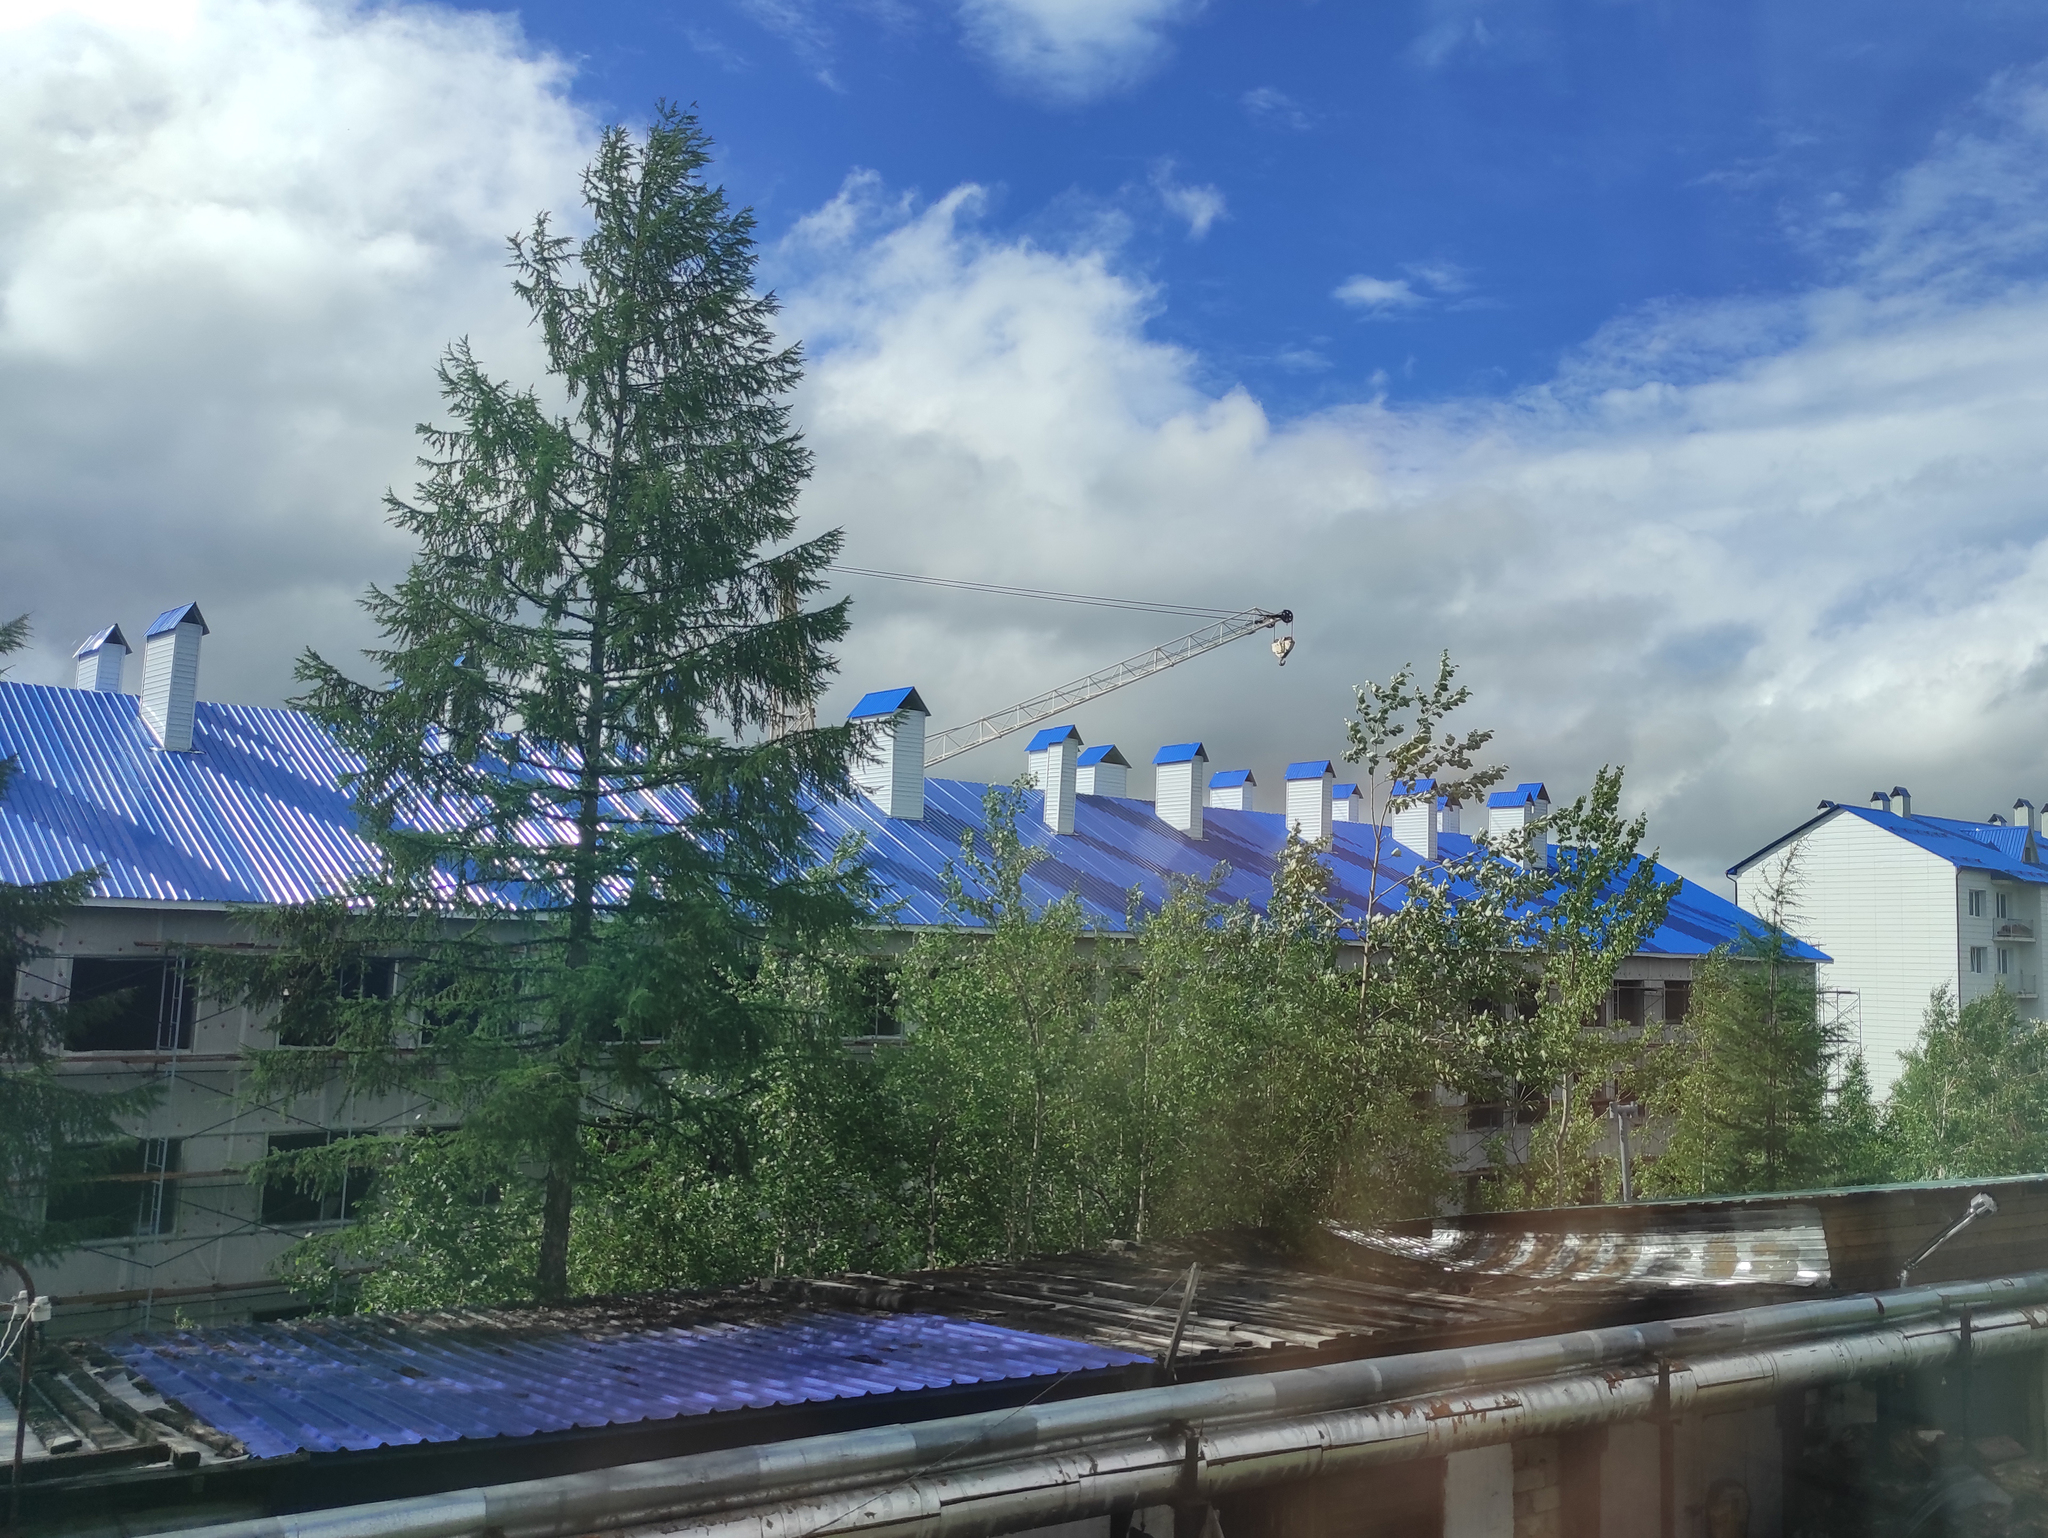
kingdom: Plantae
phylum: Tracheophyta
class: Pinopsida
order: Pinales
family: Pinaceae
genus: Larix
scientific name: Larix gmelinii
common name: Dahurian larch
